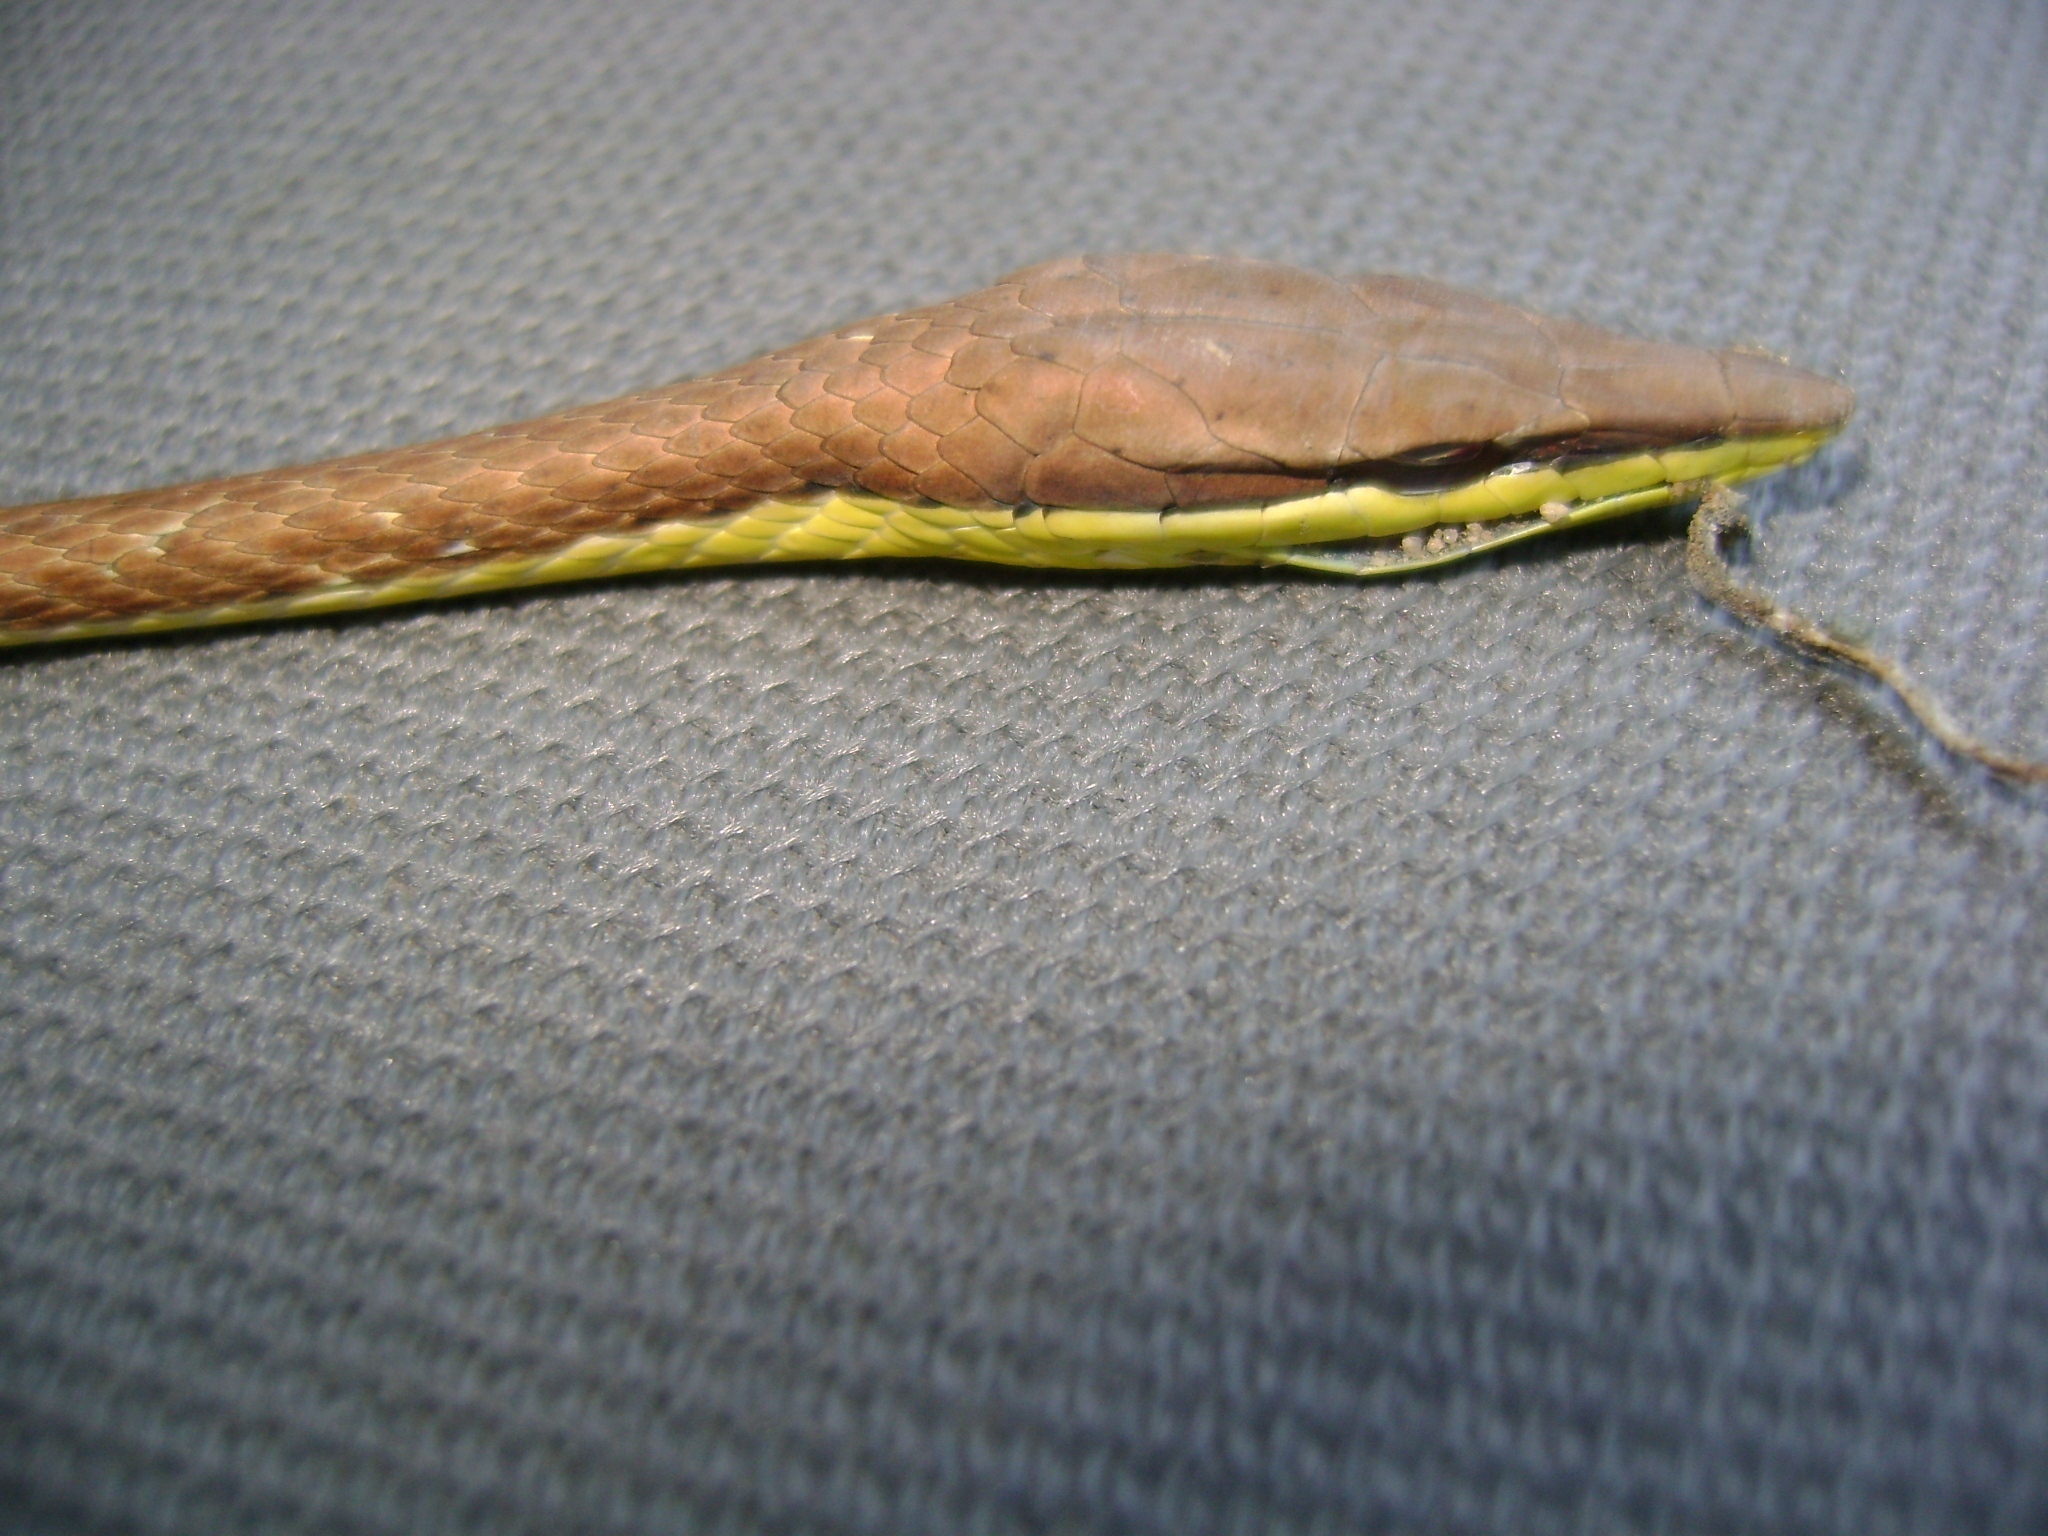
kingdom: Animalia
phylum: Chordata
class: Squamata
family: Colubridae
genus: Oxybelis
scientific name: Oxybelis microphthalmus
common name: Thrornscrub vine snake
